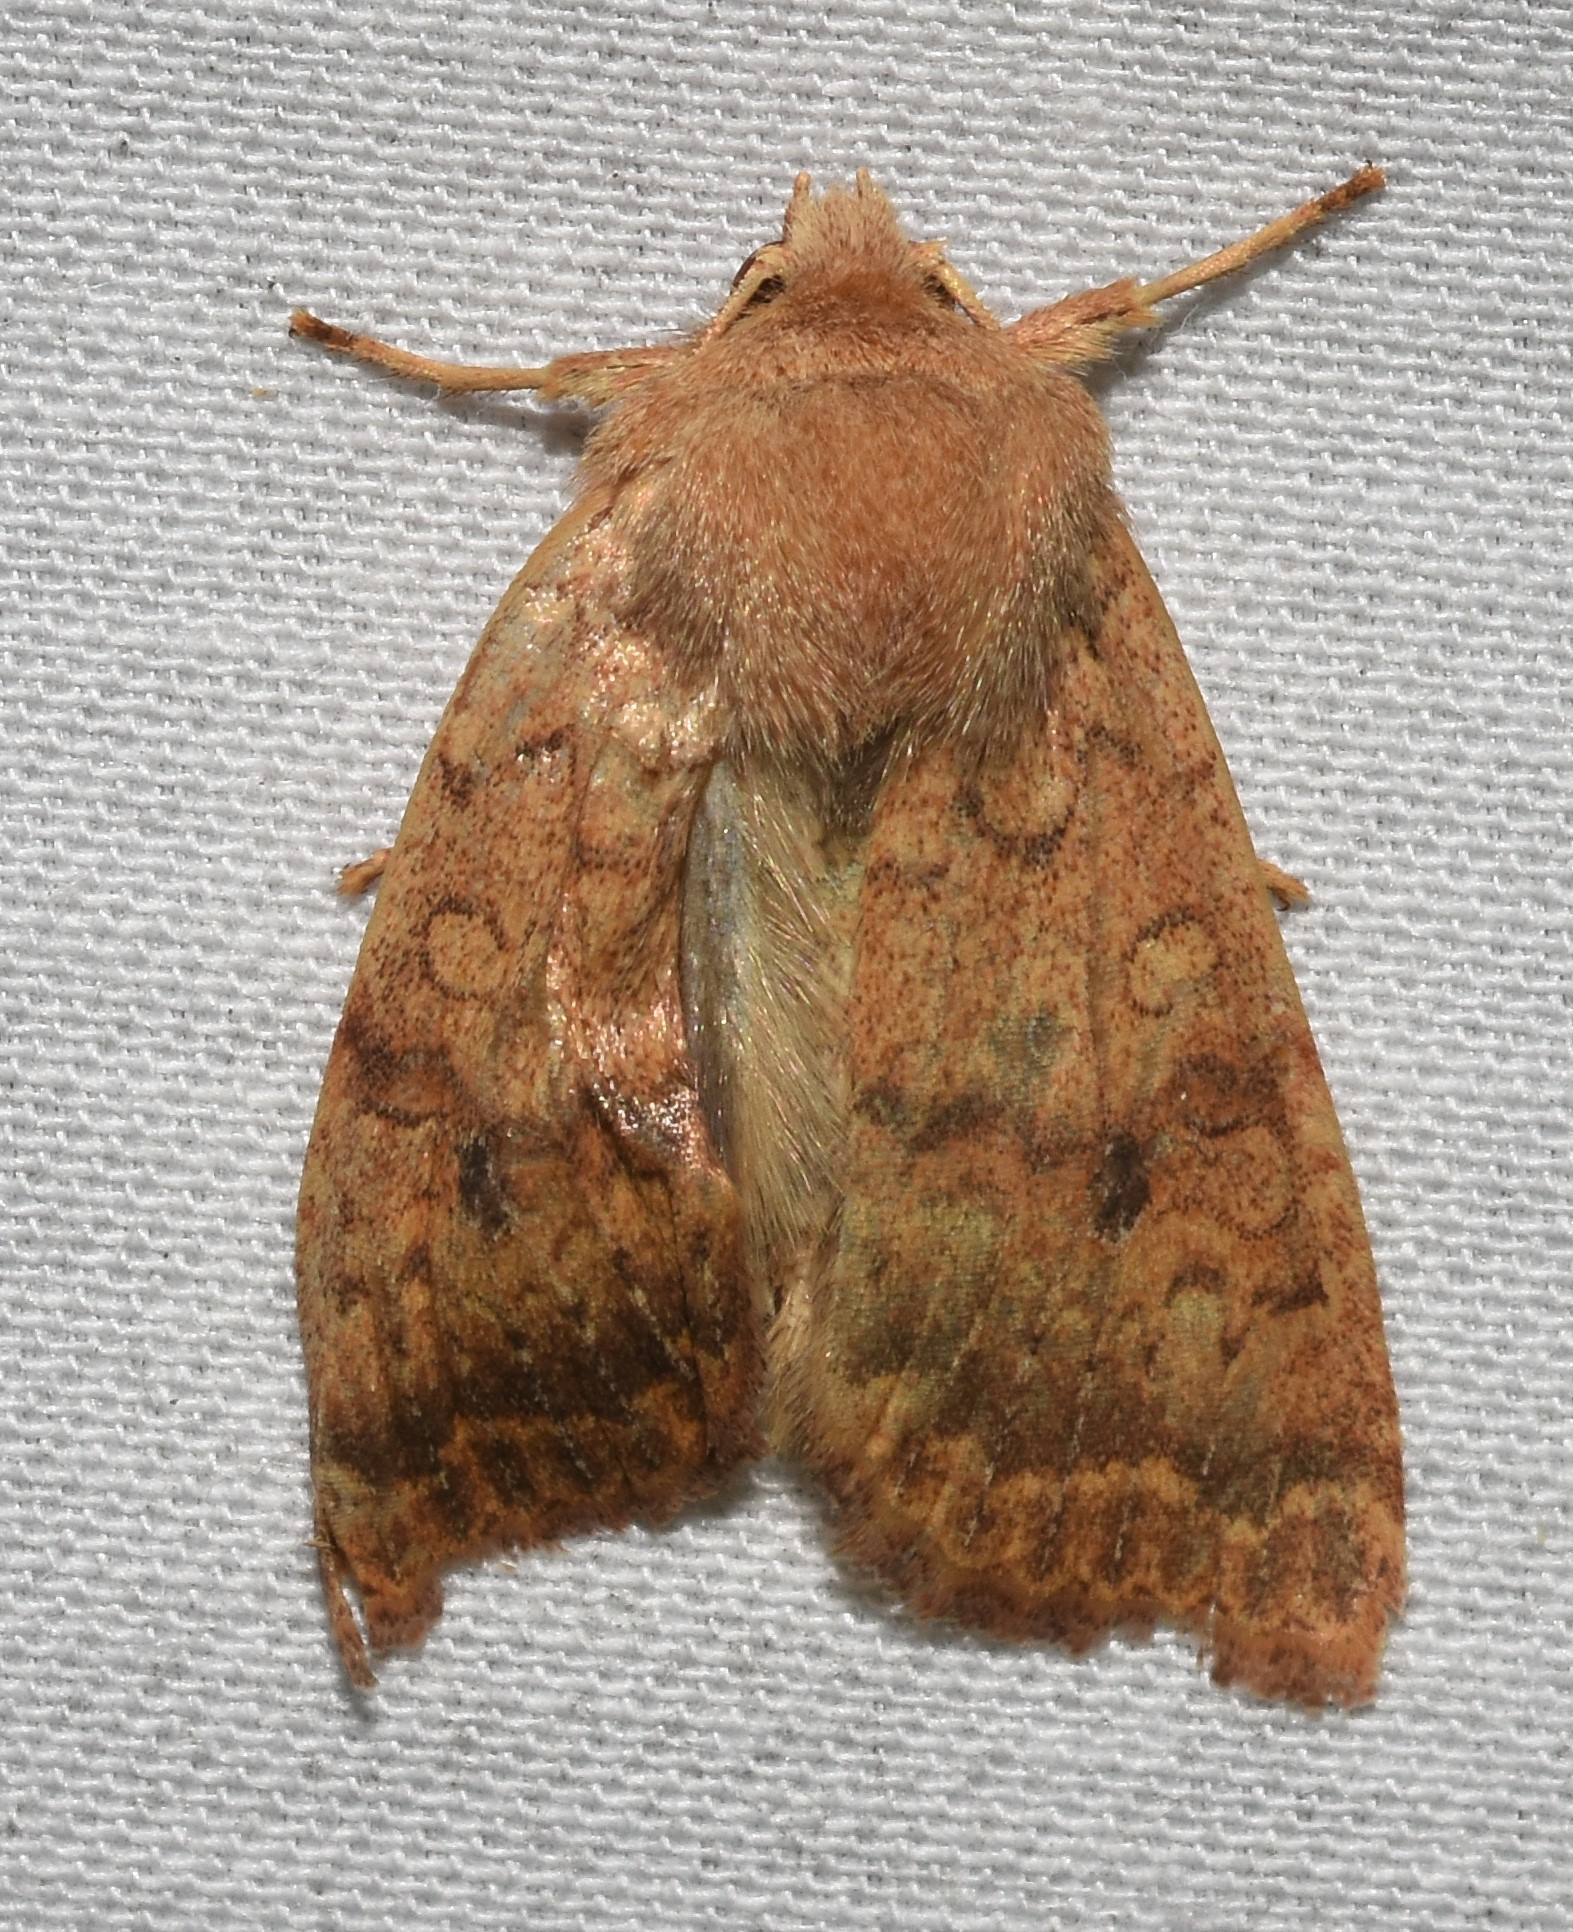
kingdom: Animalia
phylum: Arthropoda
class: Insecta
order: Lepidoptera
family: Noctuidae
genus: Agrochola
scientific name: Agrochola bicolorago
